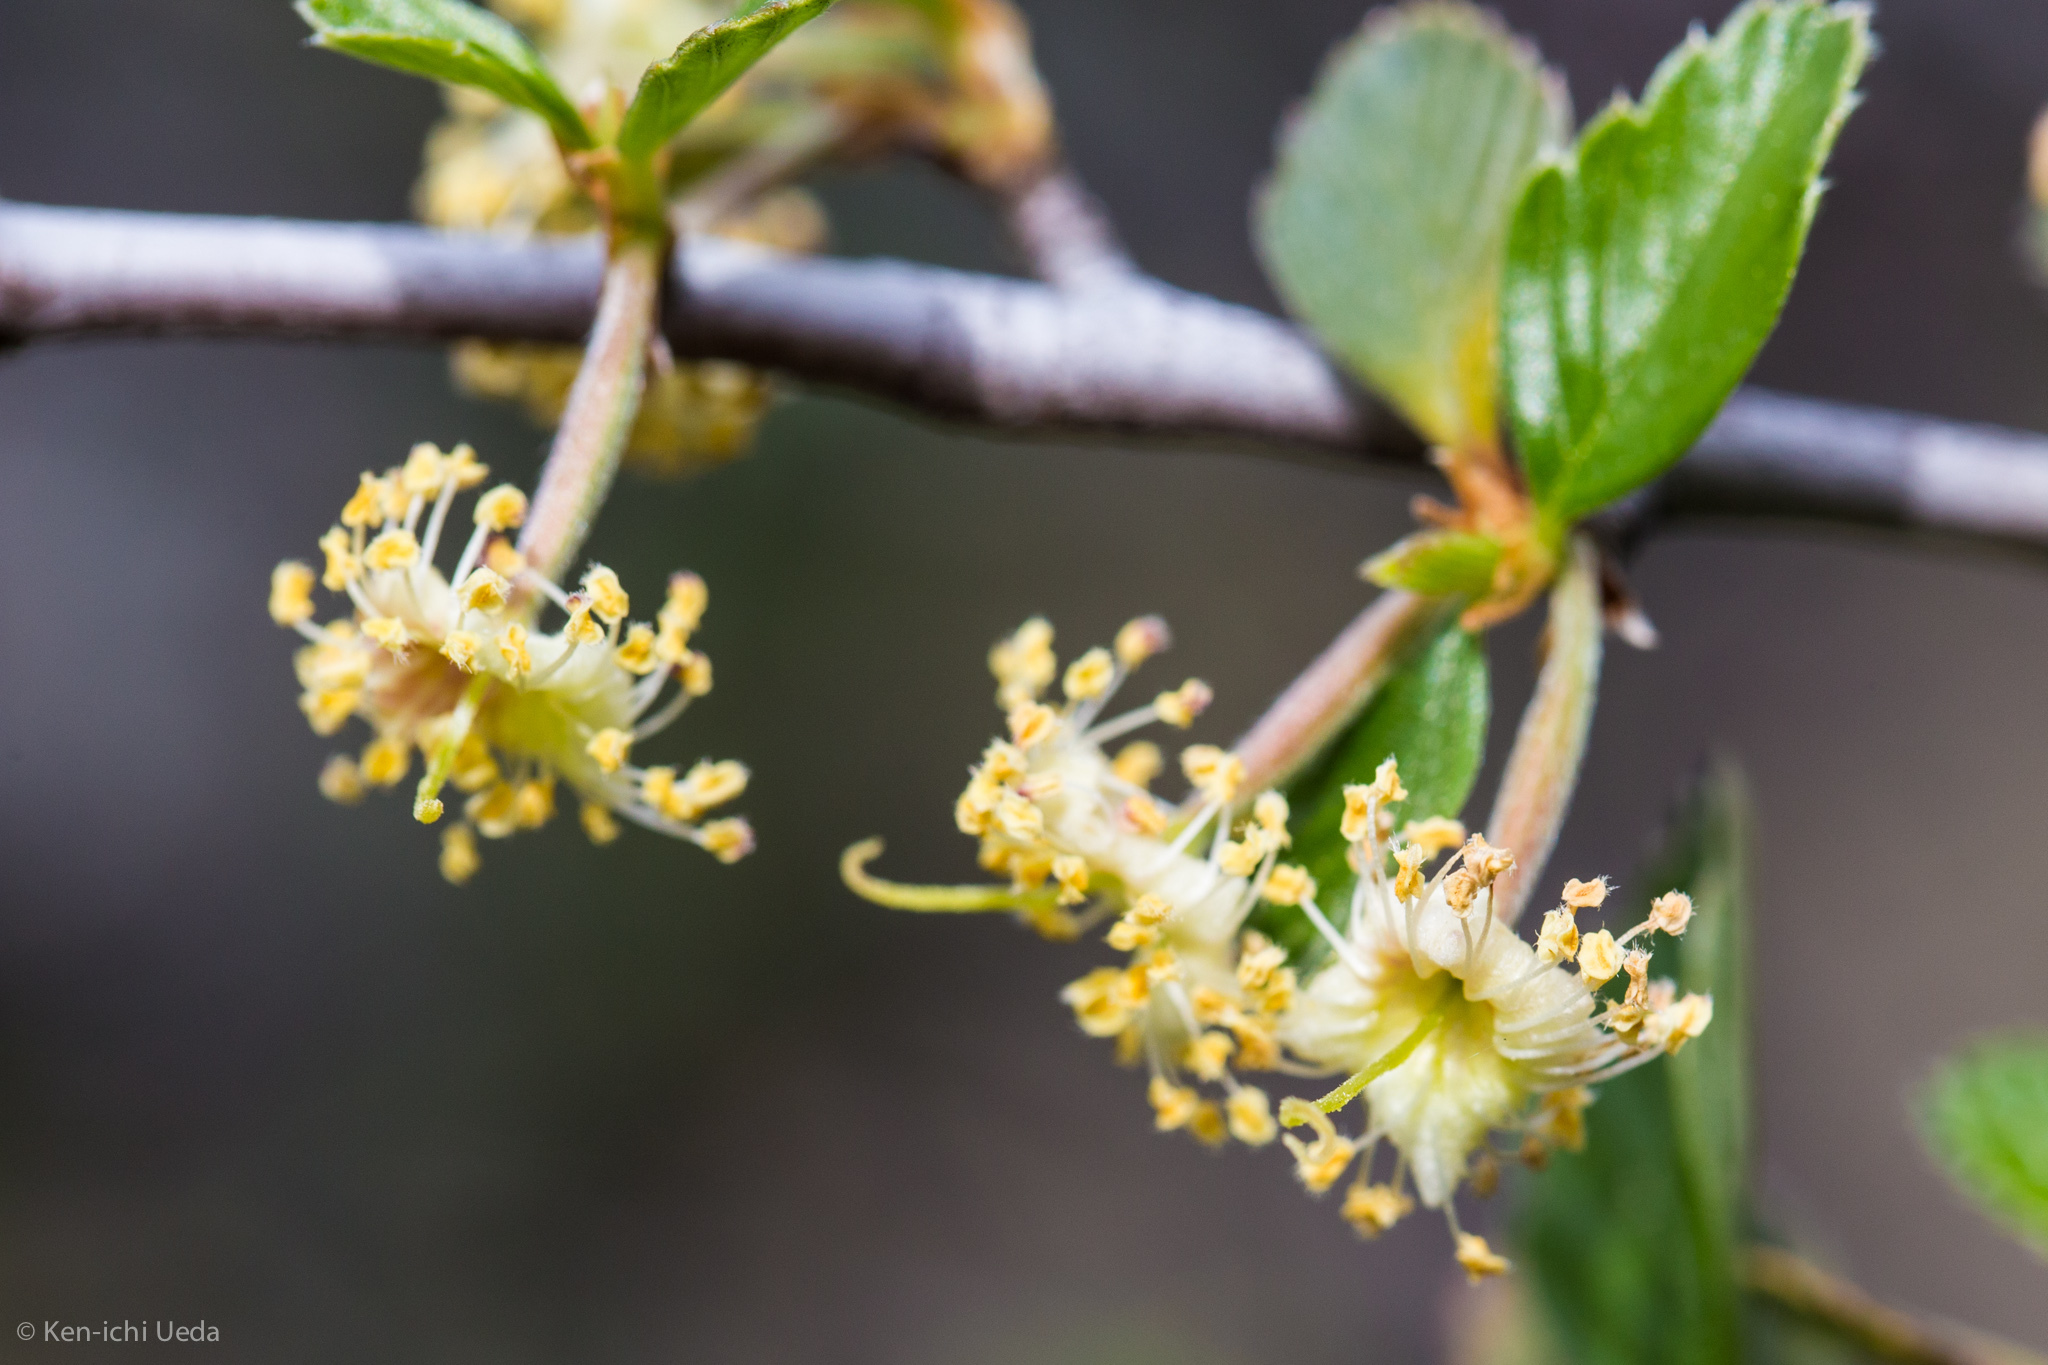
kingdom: Plantae
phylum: Tracheophyta
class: Magnoliopsida
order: Rosales
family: Rosaceae
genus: Cercocarpus
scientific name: Cercocarpus betuloides
